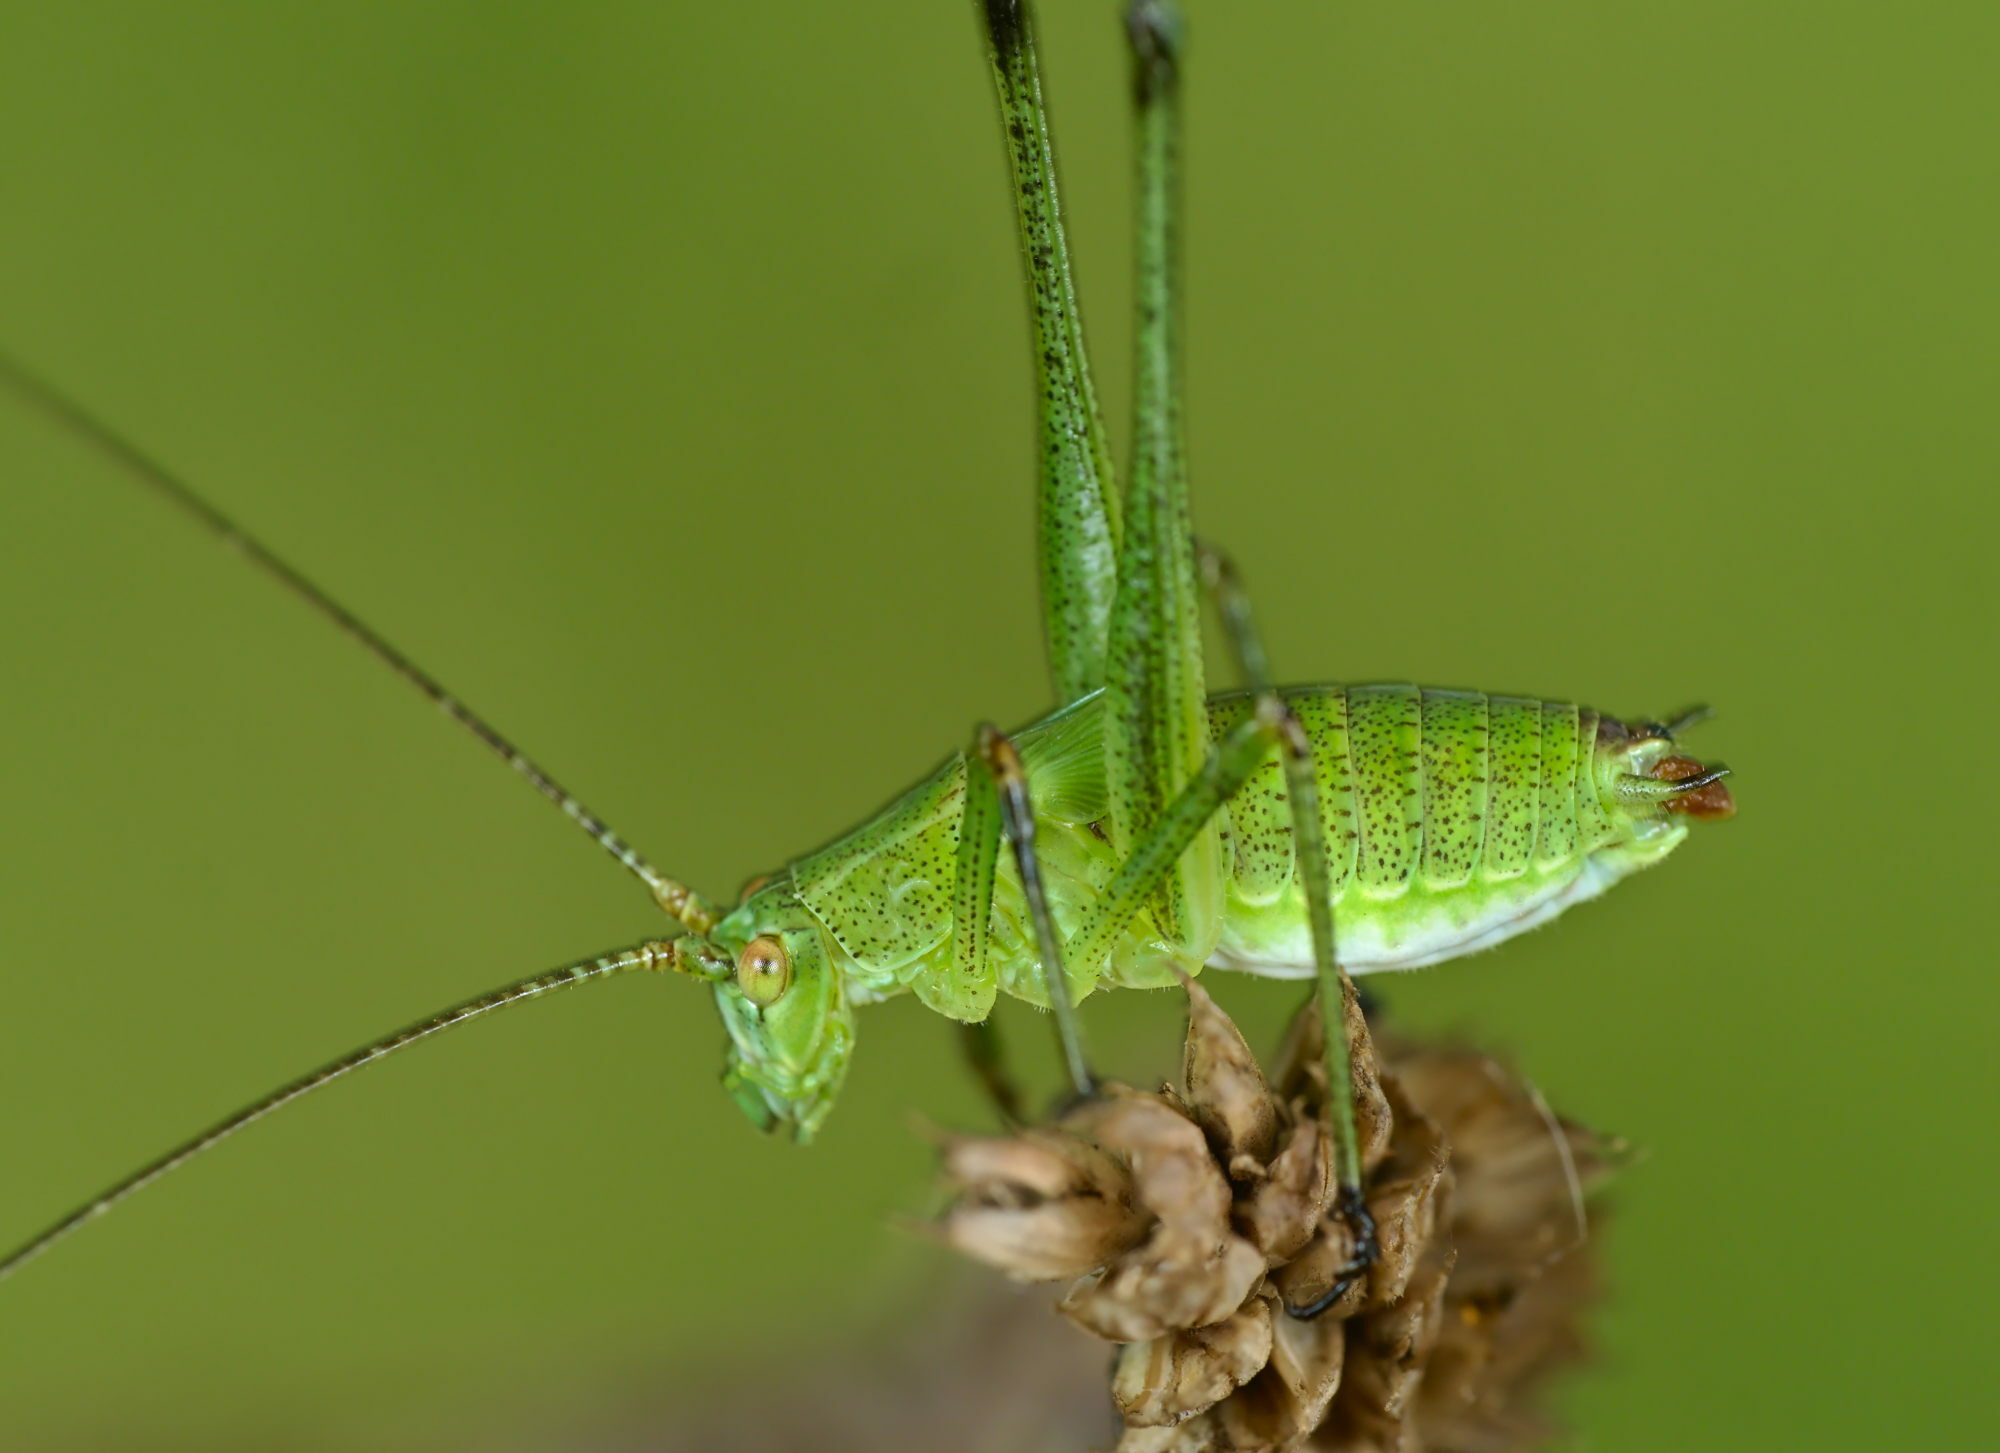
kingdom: Animalia
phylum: Arthropoda
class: Insecta
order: Orthoptera
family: Tettigoniidae
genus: Phaneroptera
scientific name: Phaneroptera falcata
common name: Sickle-bearing bush-cricket
